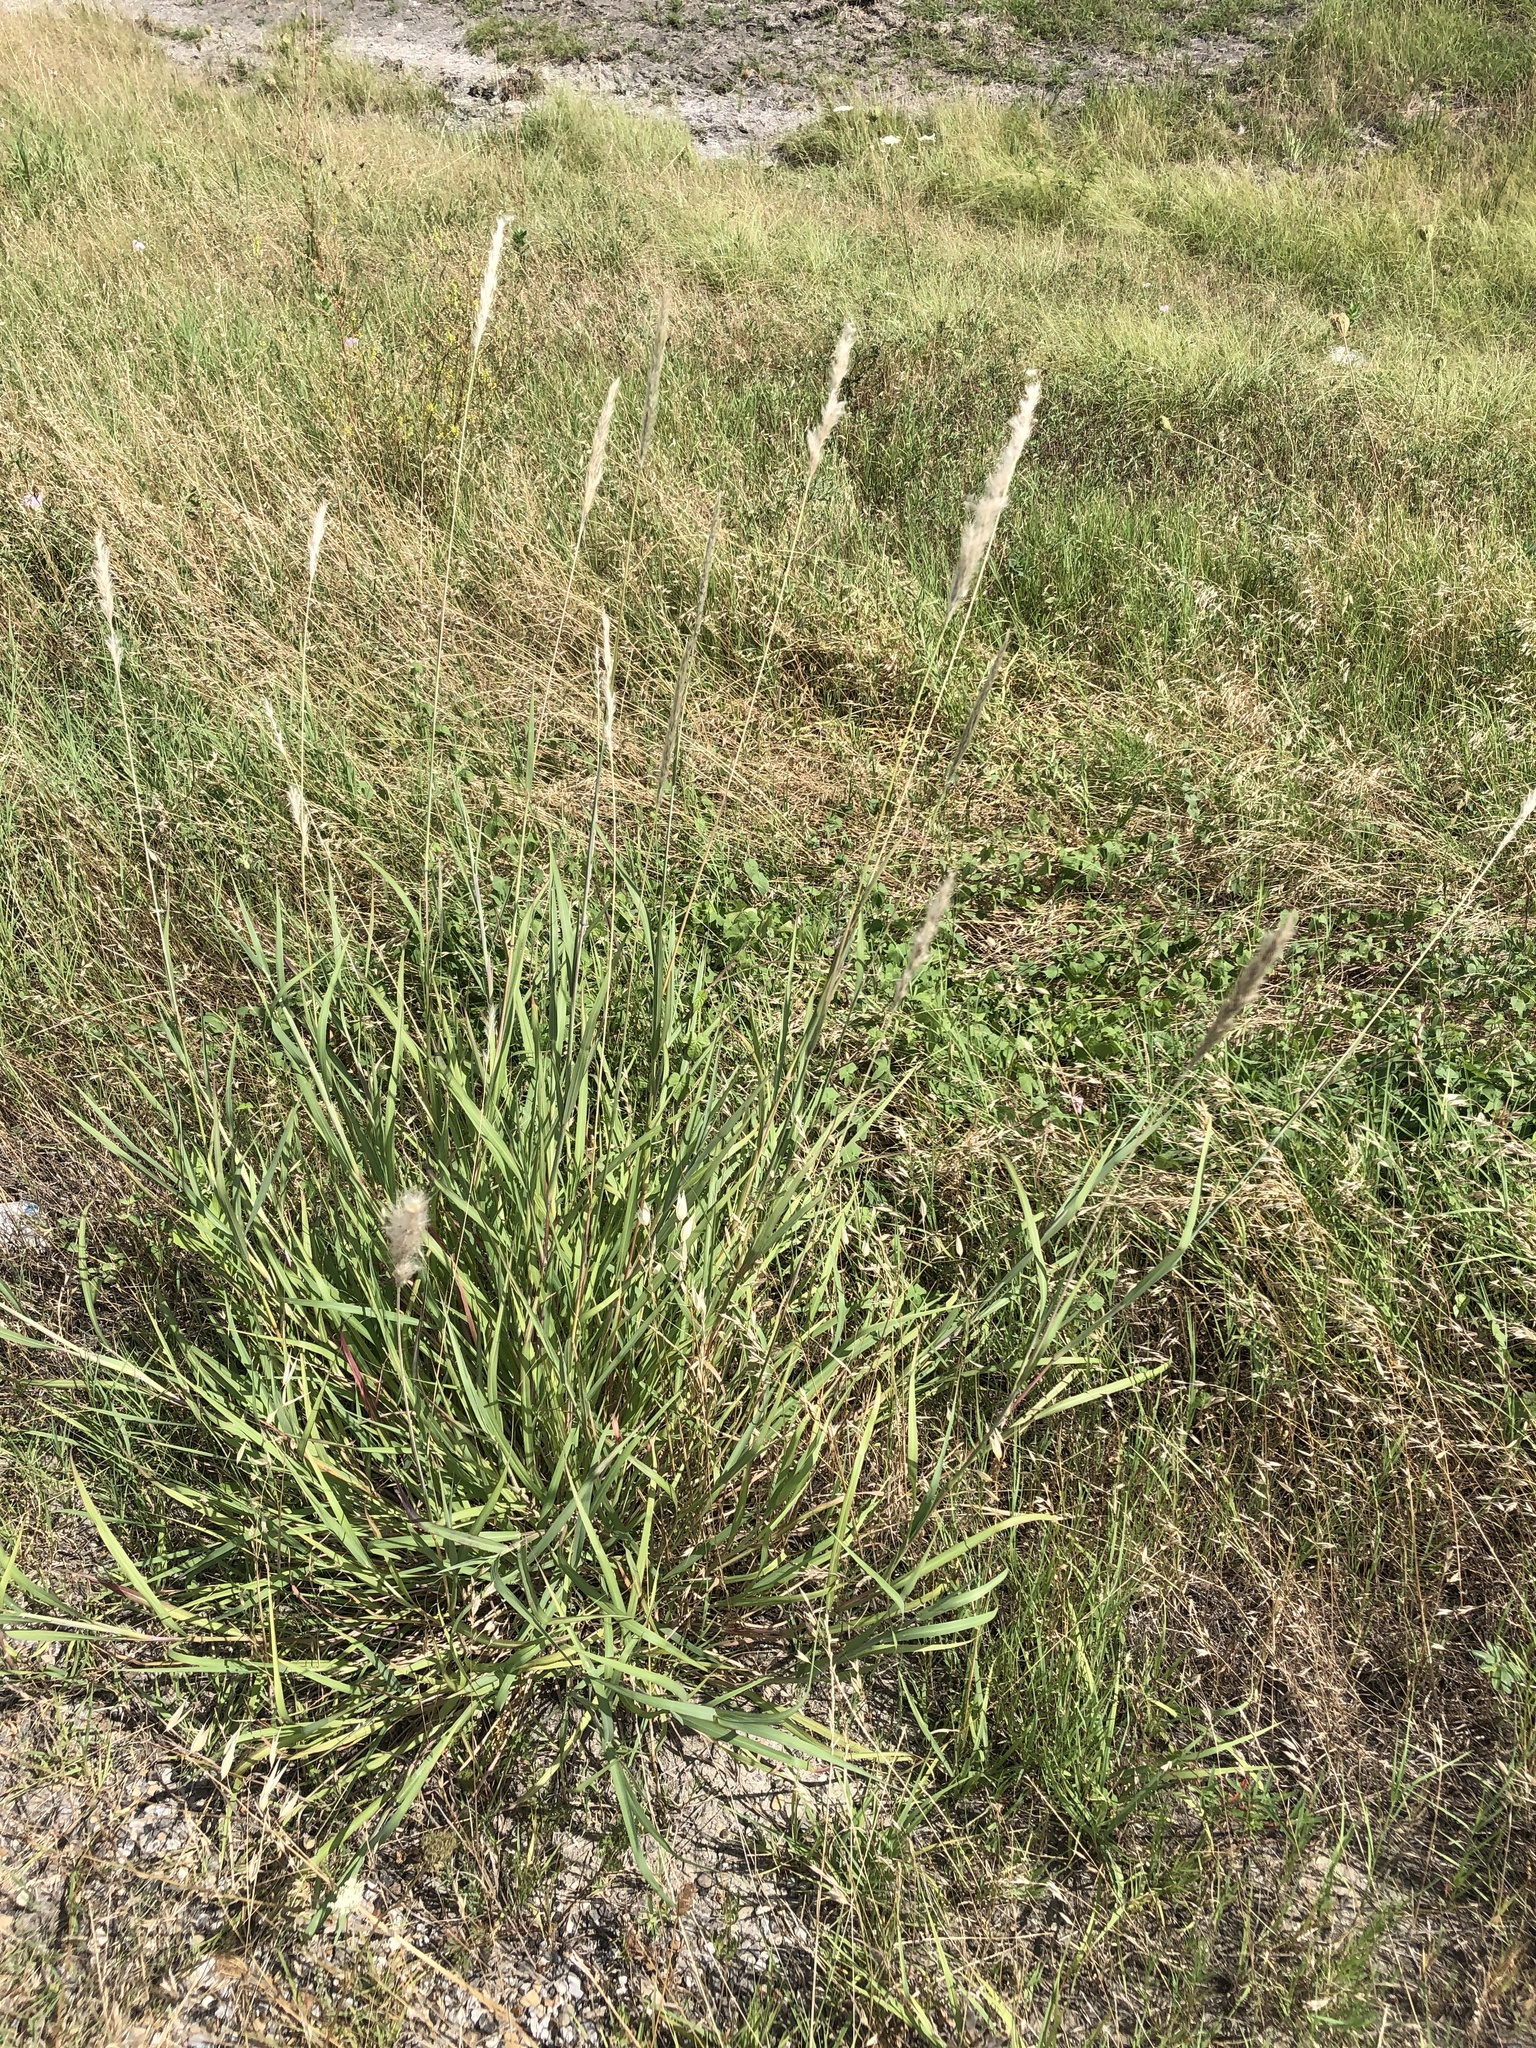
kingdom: Plantae
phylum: Tracheophyta
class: Liliopsida
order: Poales
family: Poaceae
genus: Bothriochloa
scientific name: Bothriochloa torreyana
